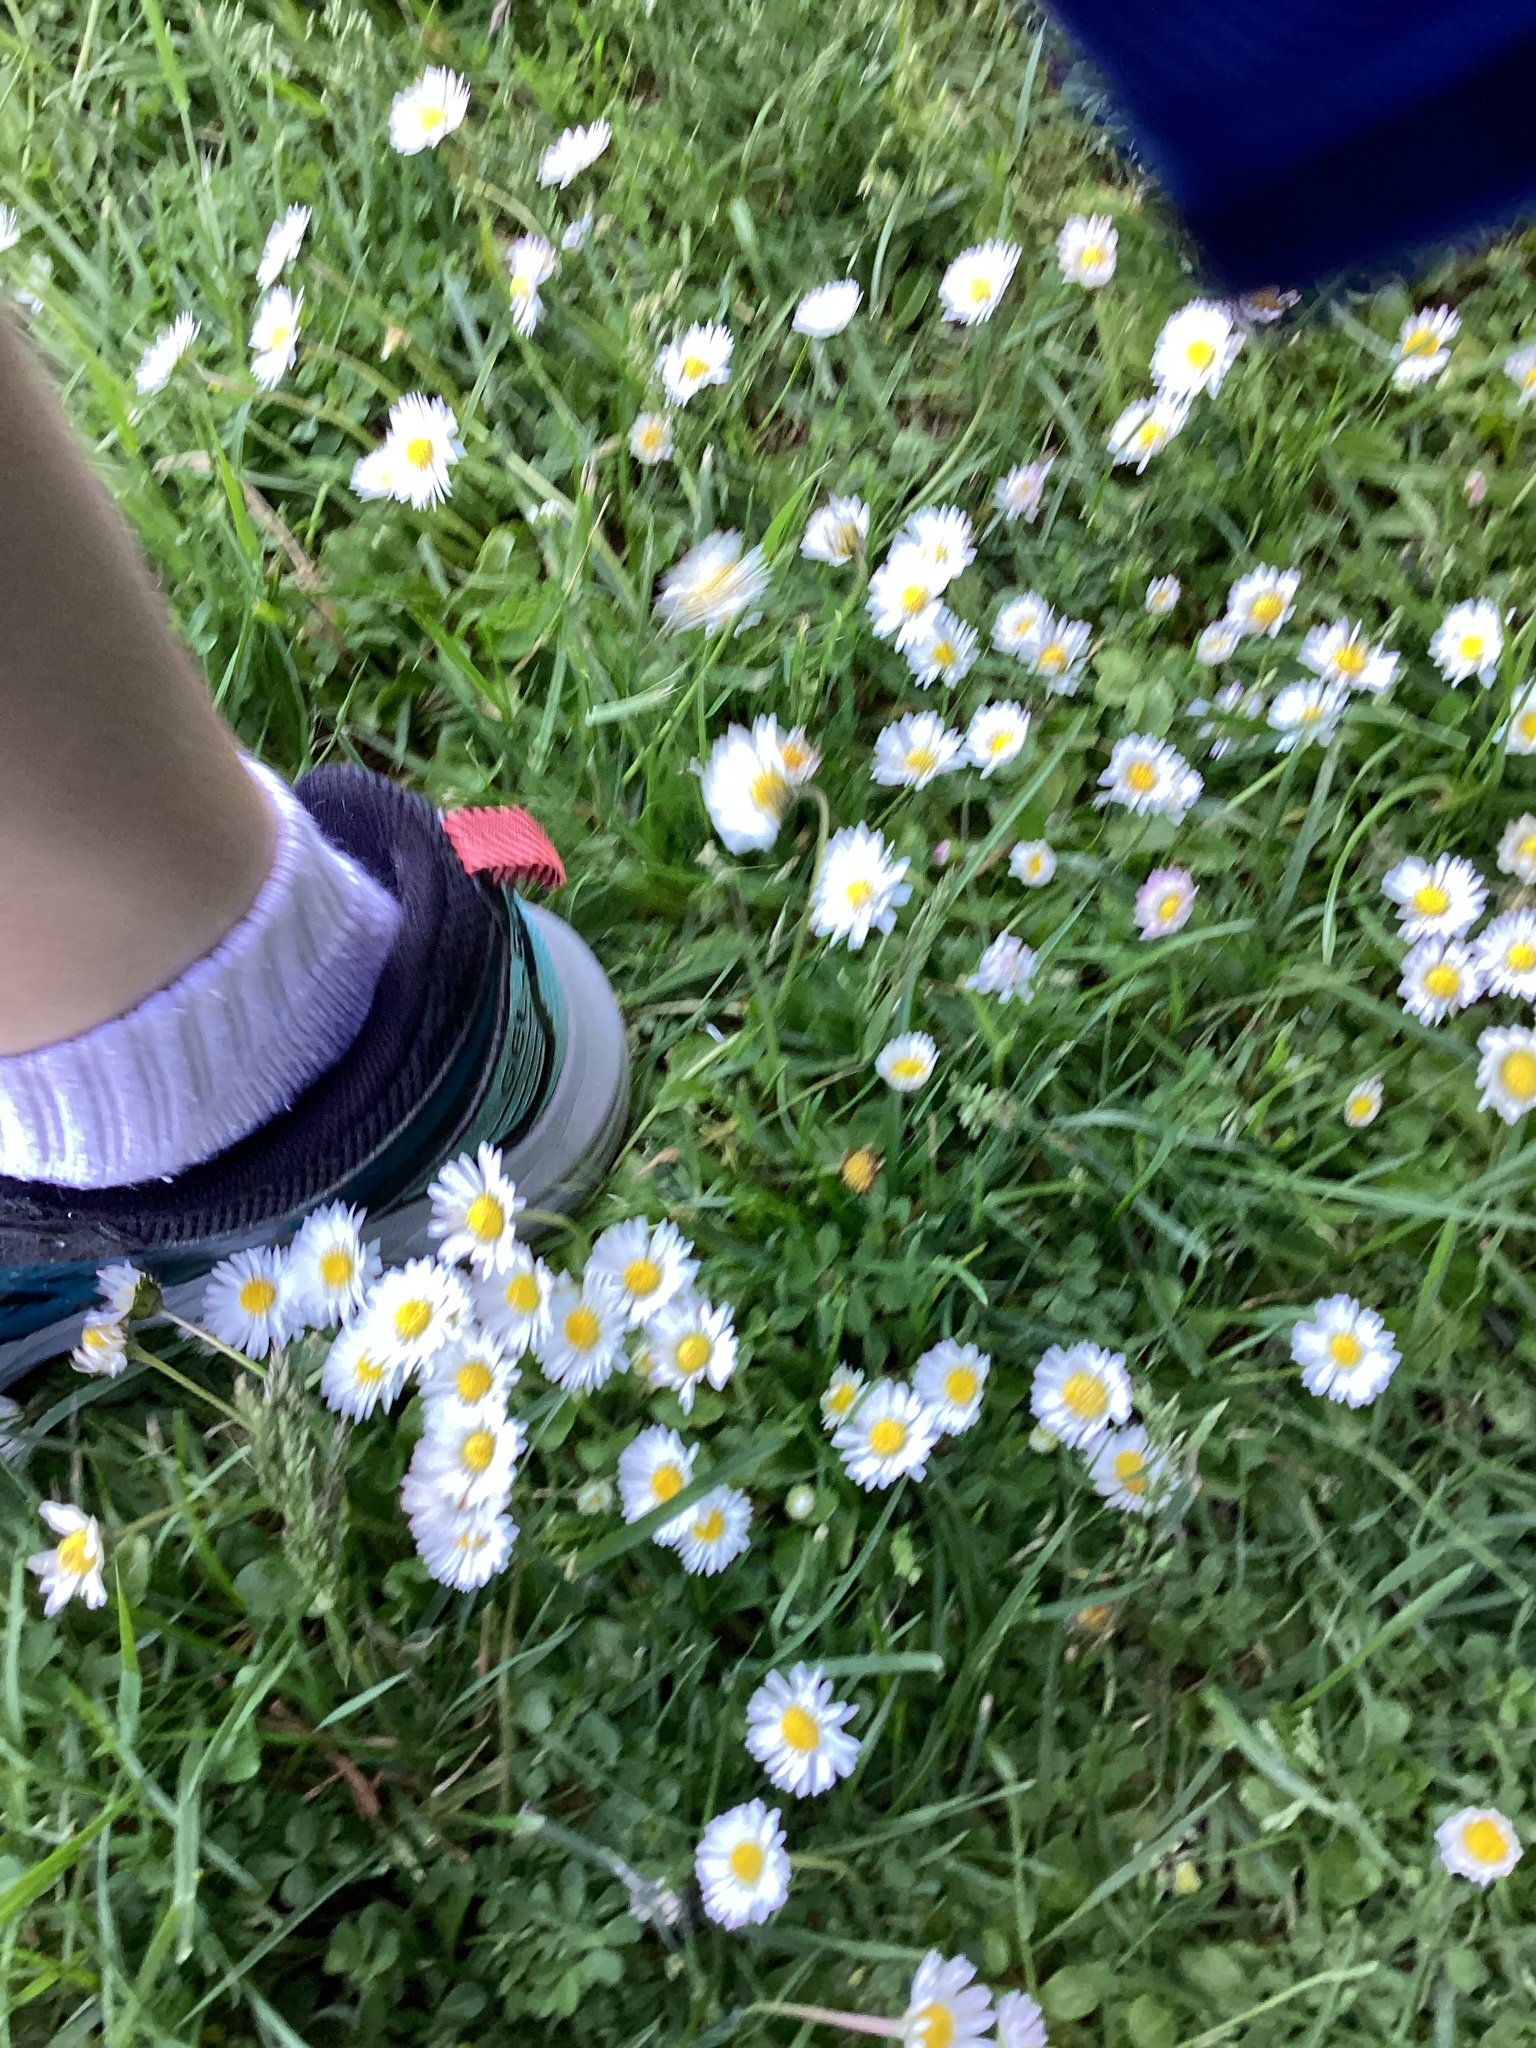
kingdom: Plantae
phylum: Tracheophyta
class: Magnoliopsida
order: Asterales
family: Asteraceae
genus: Bellis
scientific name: Bellis perennis
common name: Lawndaisy
